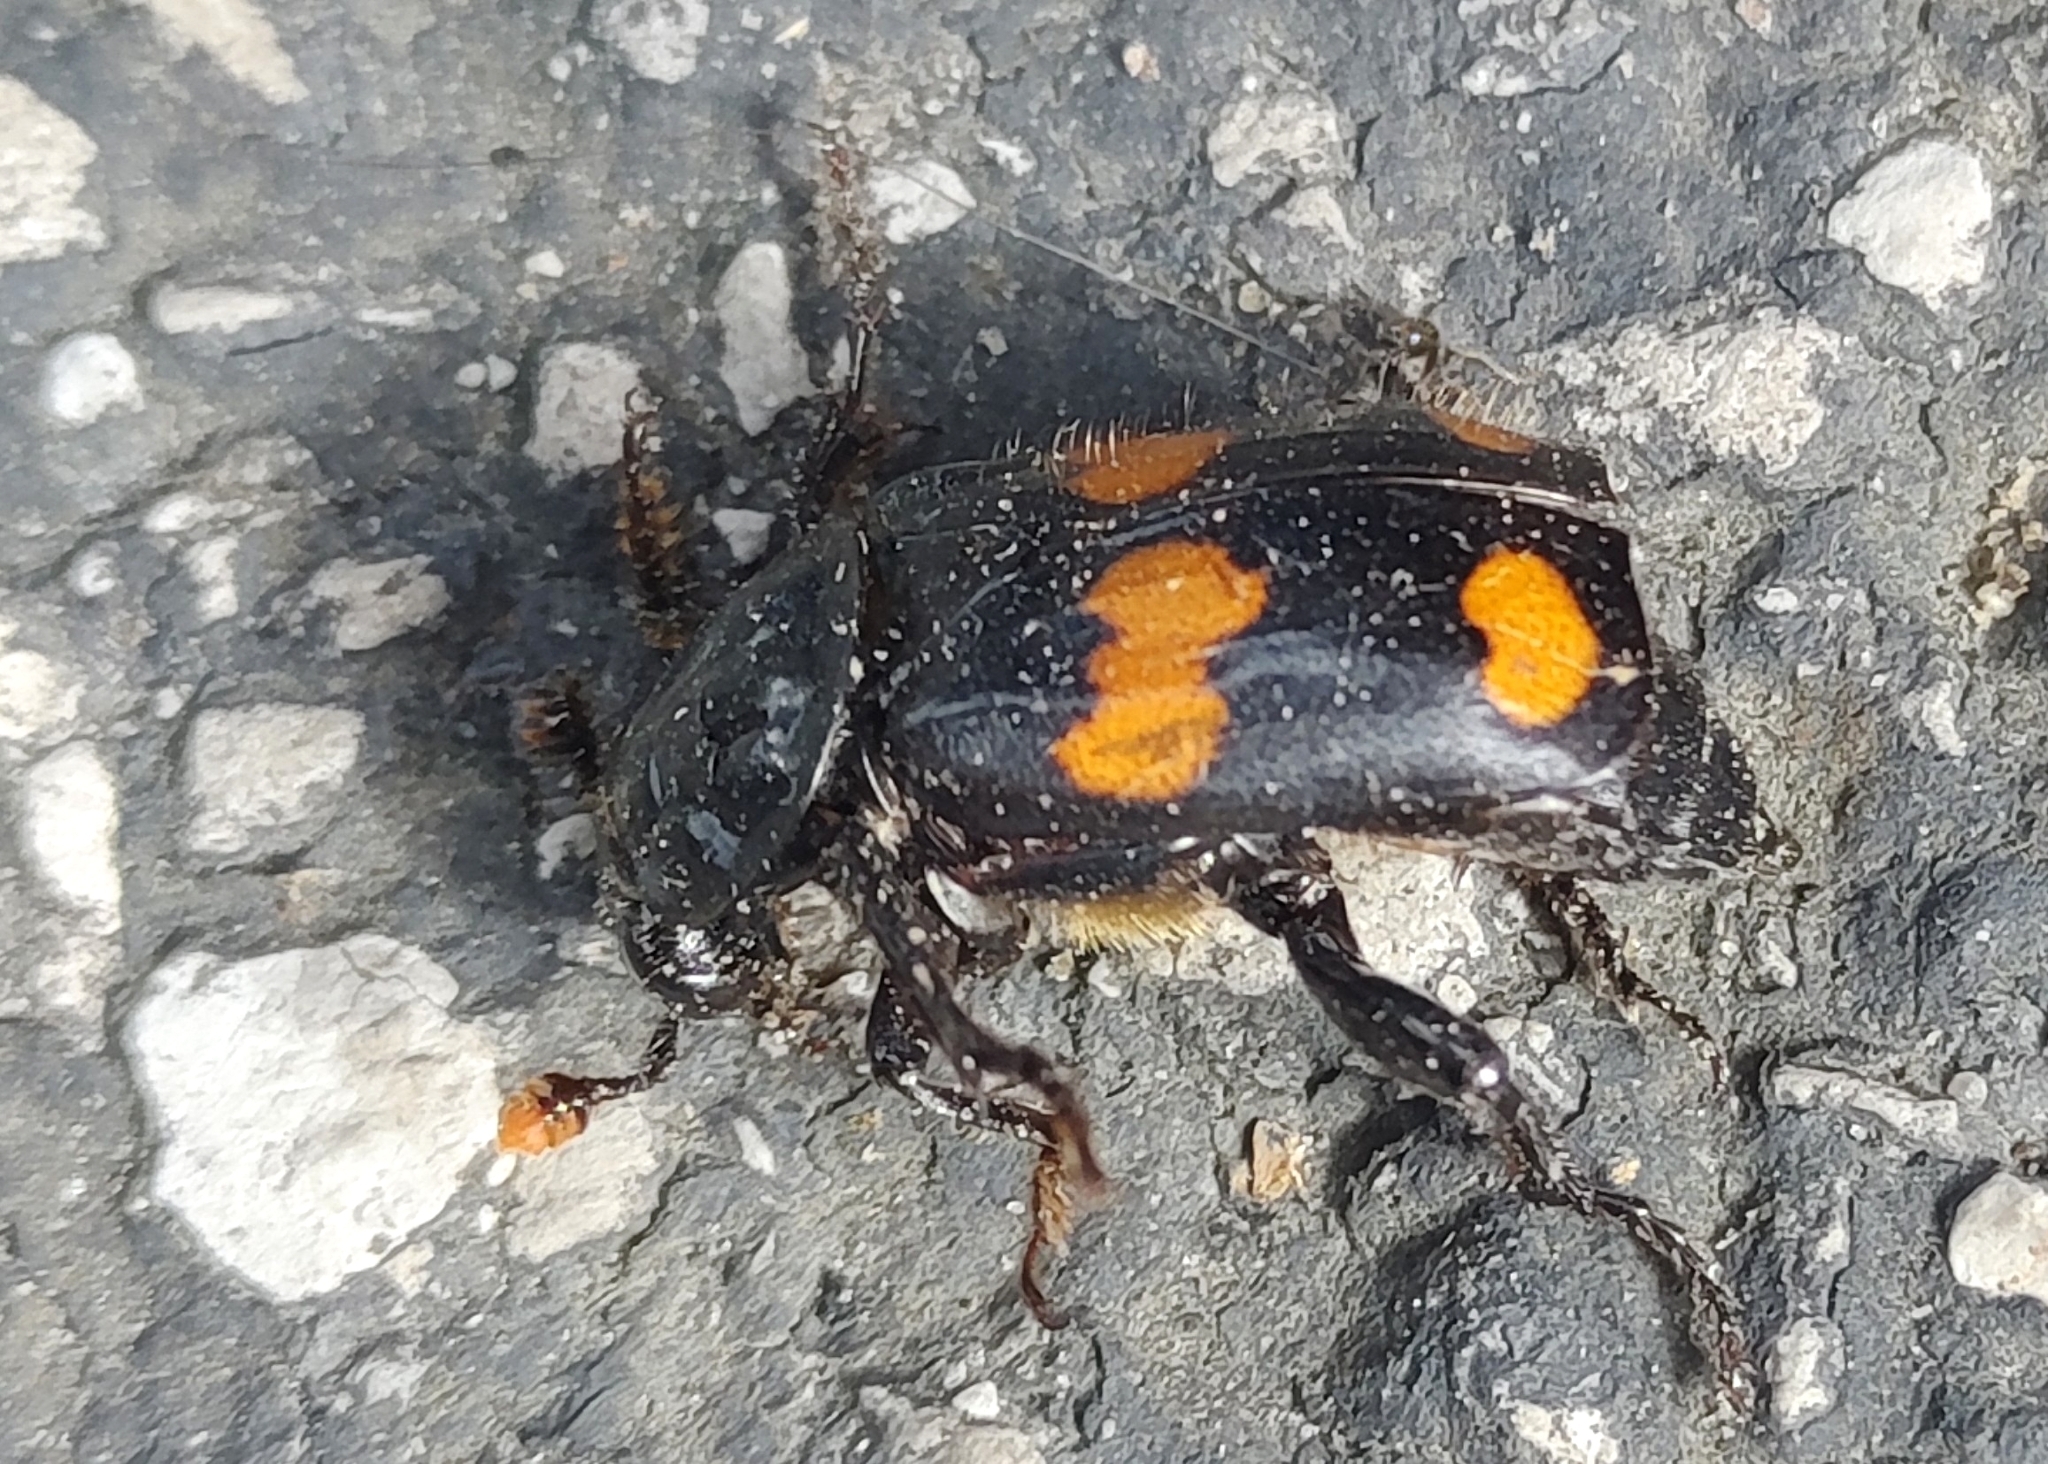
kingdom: Animalia
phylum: Arthropoda
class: Insecta
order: Coleoptera
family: Staphylinidae
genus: Nicrophorus
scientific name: Nicrophorus orbicollis
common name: Roundneck sexton beetle
